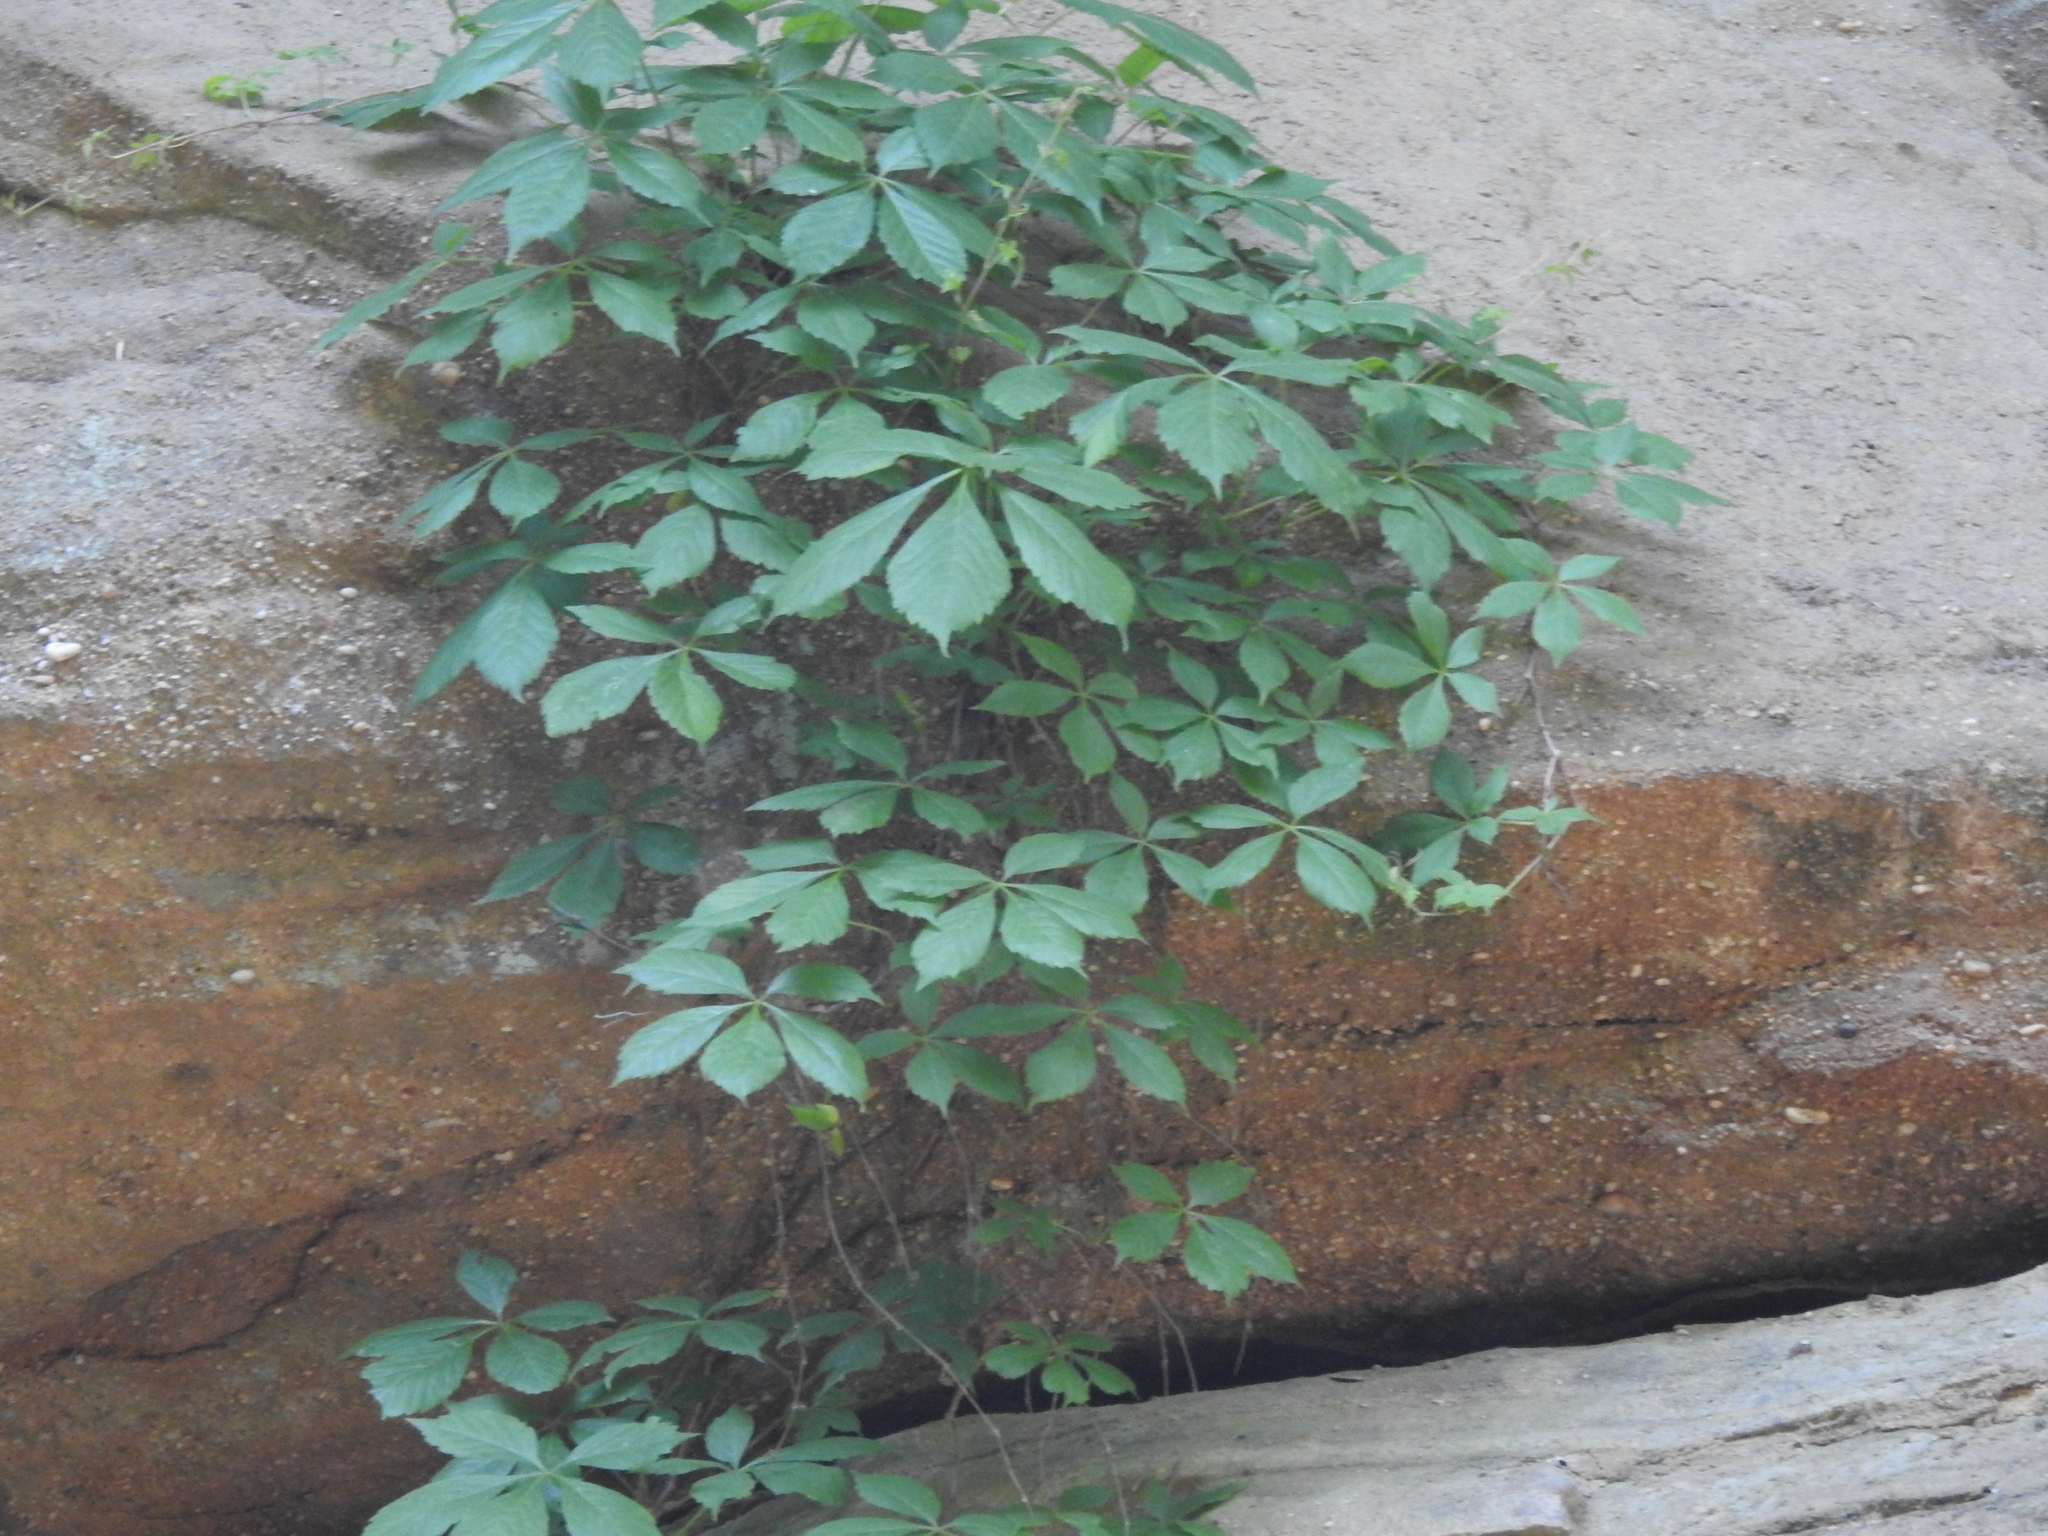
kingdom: Plantae
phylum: Tracheophyta
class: Magnoliopsida
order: Vitales
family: Vitaceae
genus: Parthenocissus
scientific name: Parthenocissus quinquefolia
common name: Virginia-creeper
